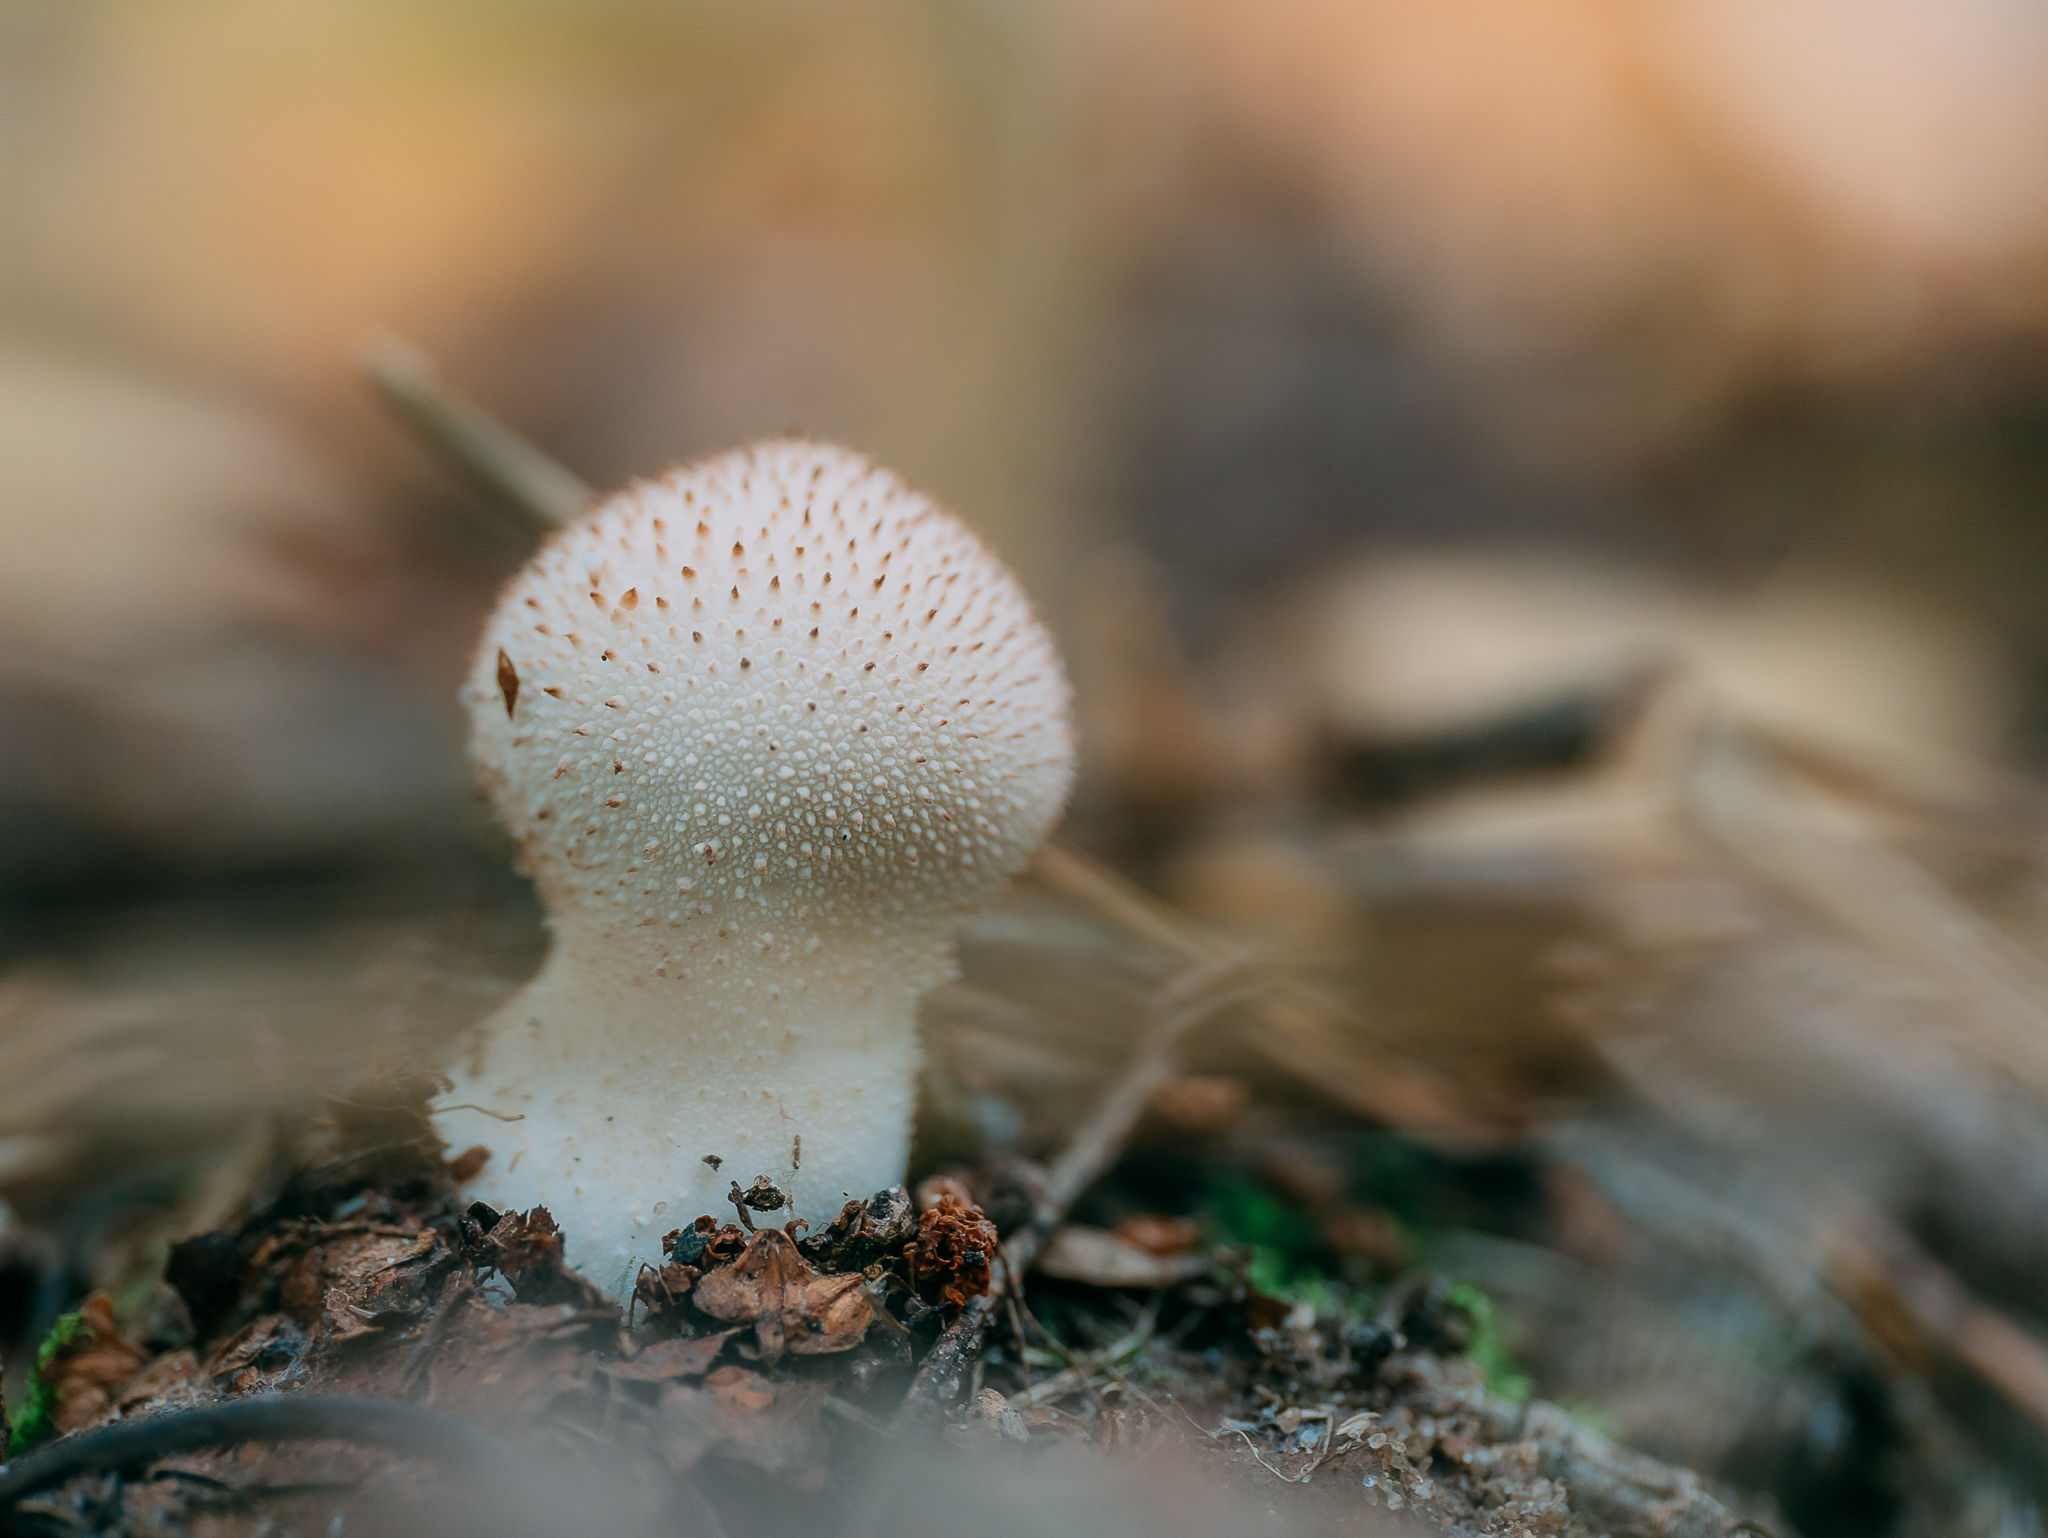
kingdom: Fungi
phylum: Basidiomycota
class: Agaricomycetes
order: Agaricales
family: Lycoperdaceae
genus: Lycoperdon
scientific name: Lycoperdon perlatum
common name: Common puffball
